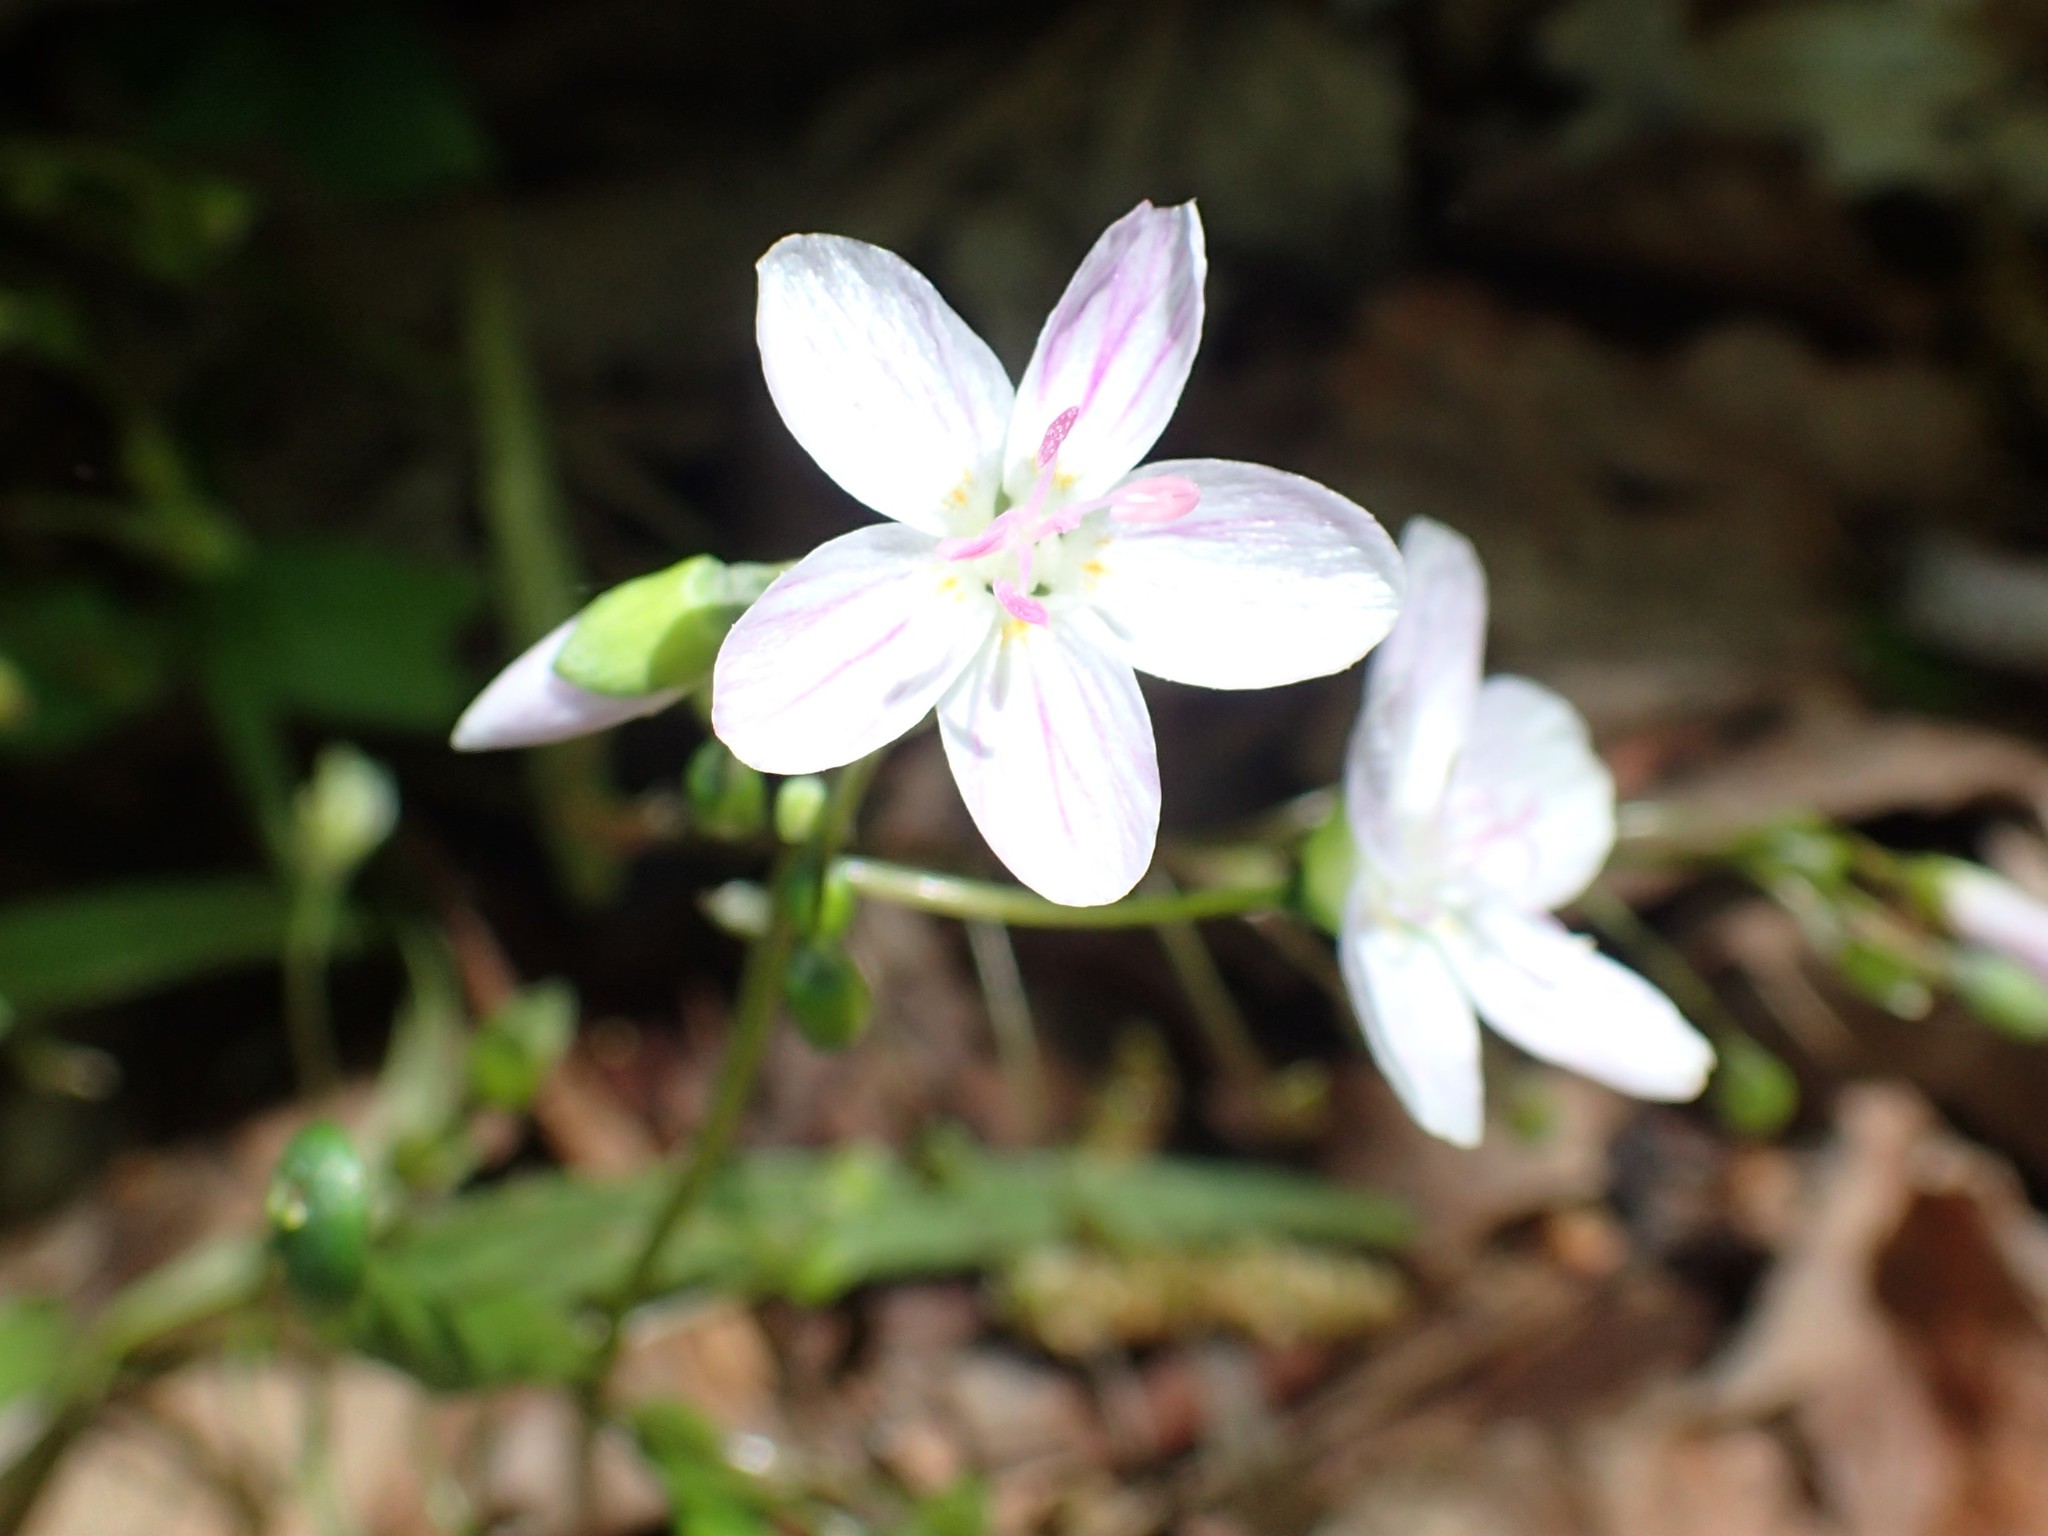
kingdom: Plantae
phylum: Tracheophyta
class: Magnoliopsida
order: Caryophyllales
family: Montiaceae
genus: Claytonia
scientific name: Claytonia virginica
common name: Virginia springbeauty
